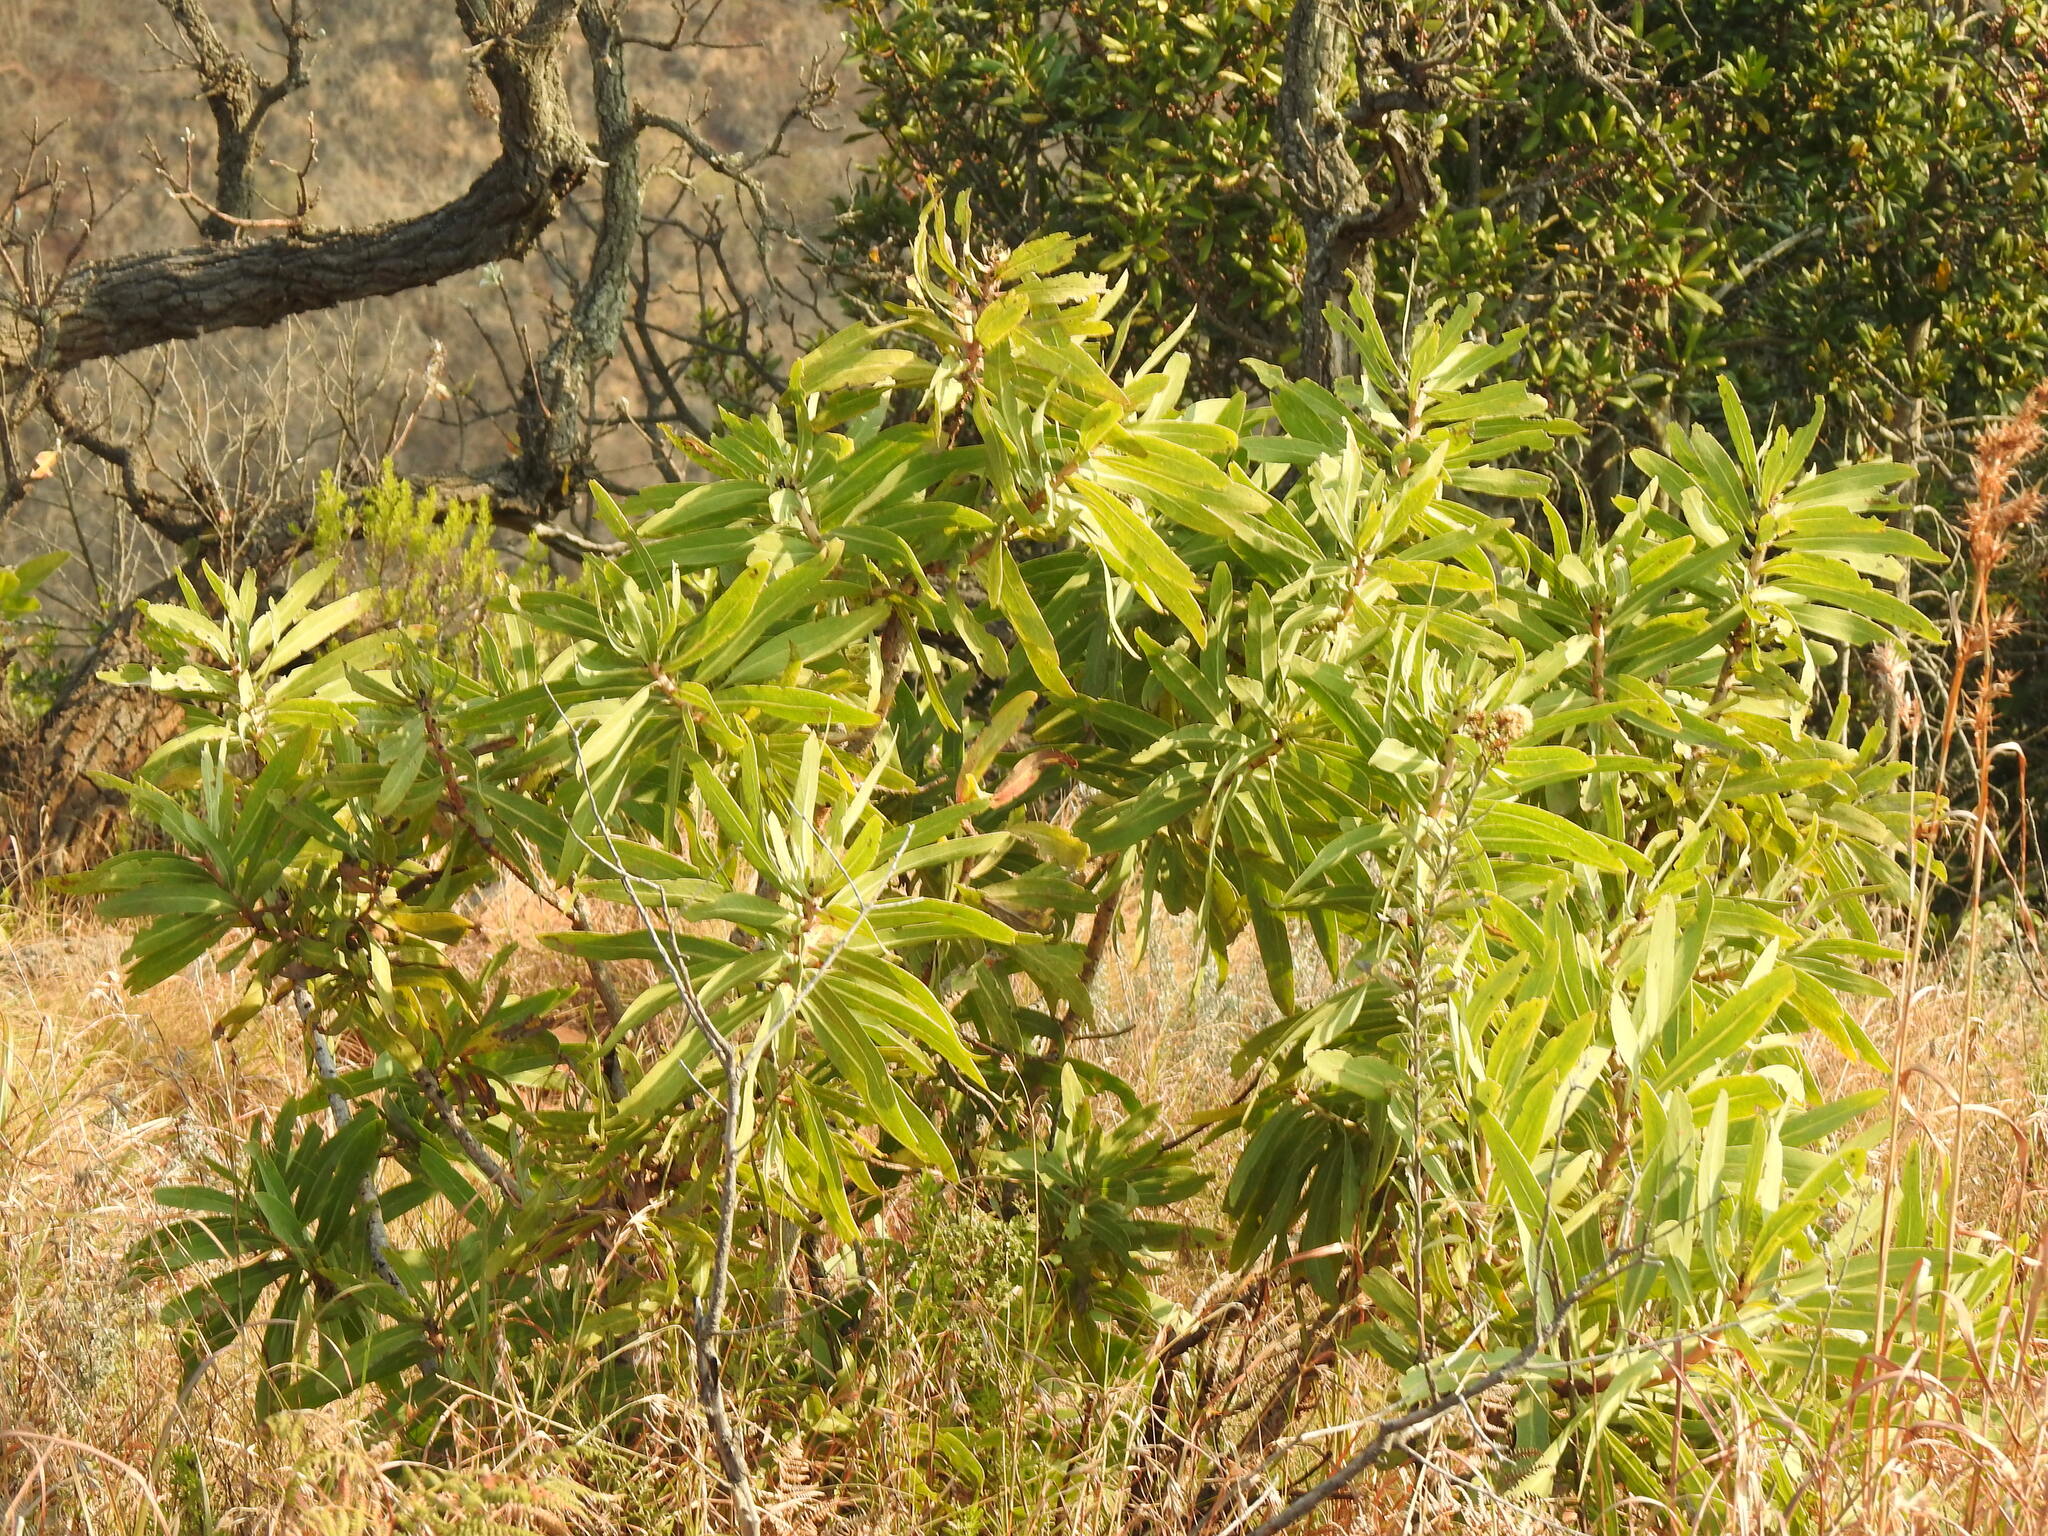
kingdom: Plantae
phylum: Tracheophyta
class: Magnoliopsida
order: Proteales
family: Proteaceae
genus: Protea
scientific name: Protea caffra
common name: Common sugarbush
